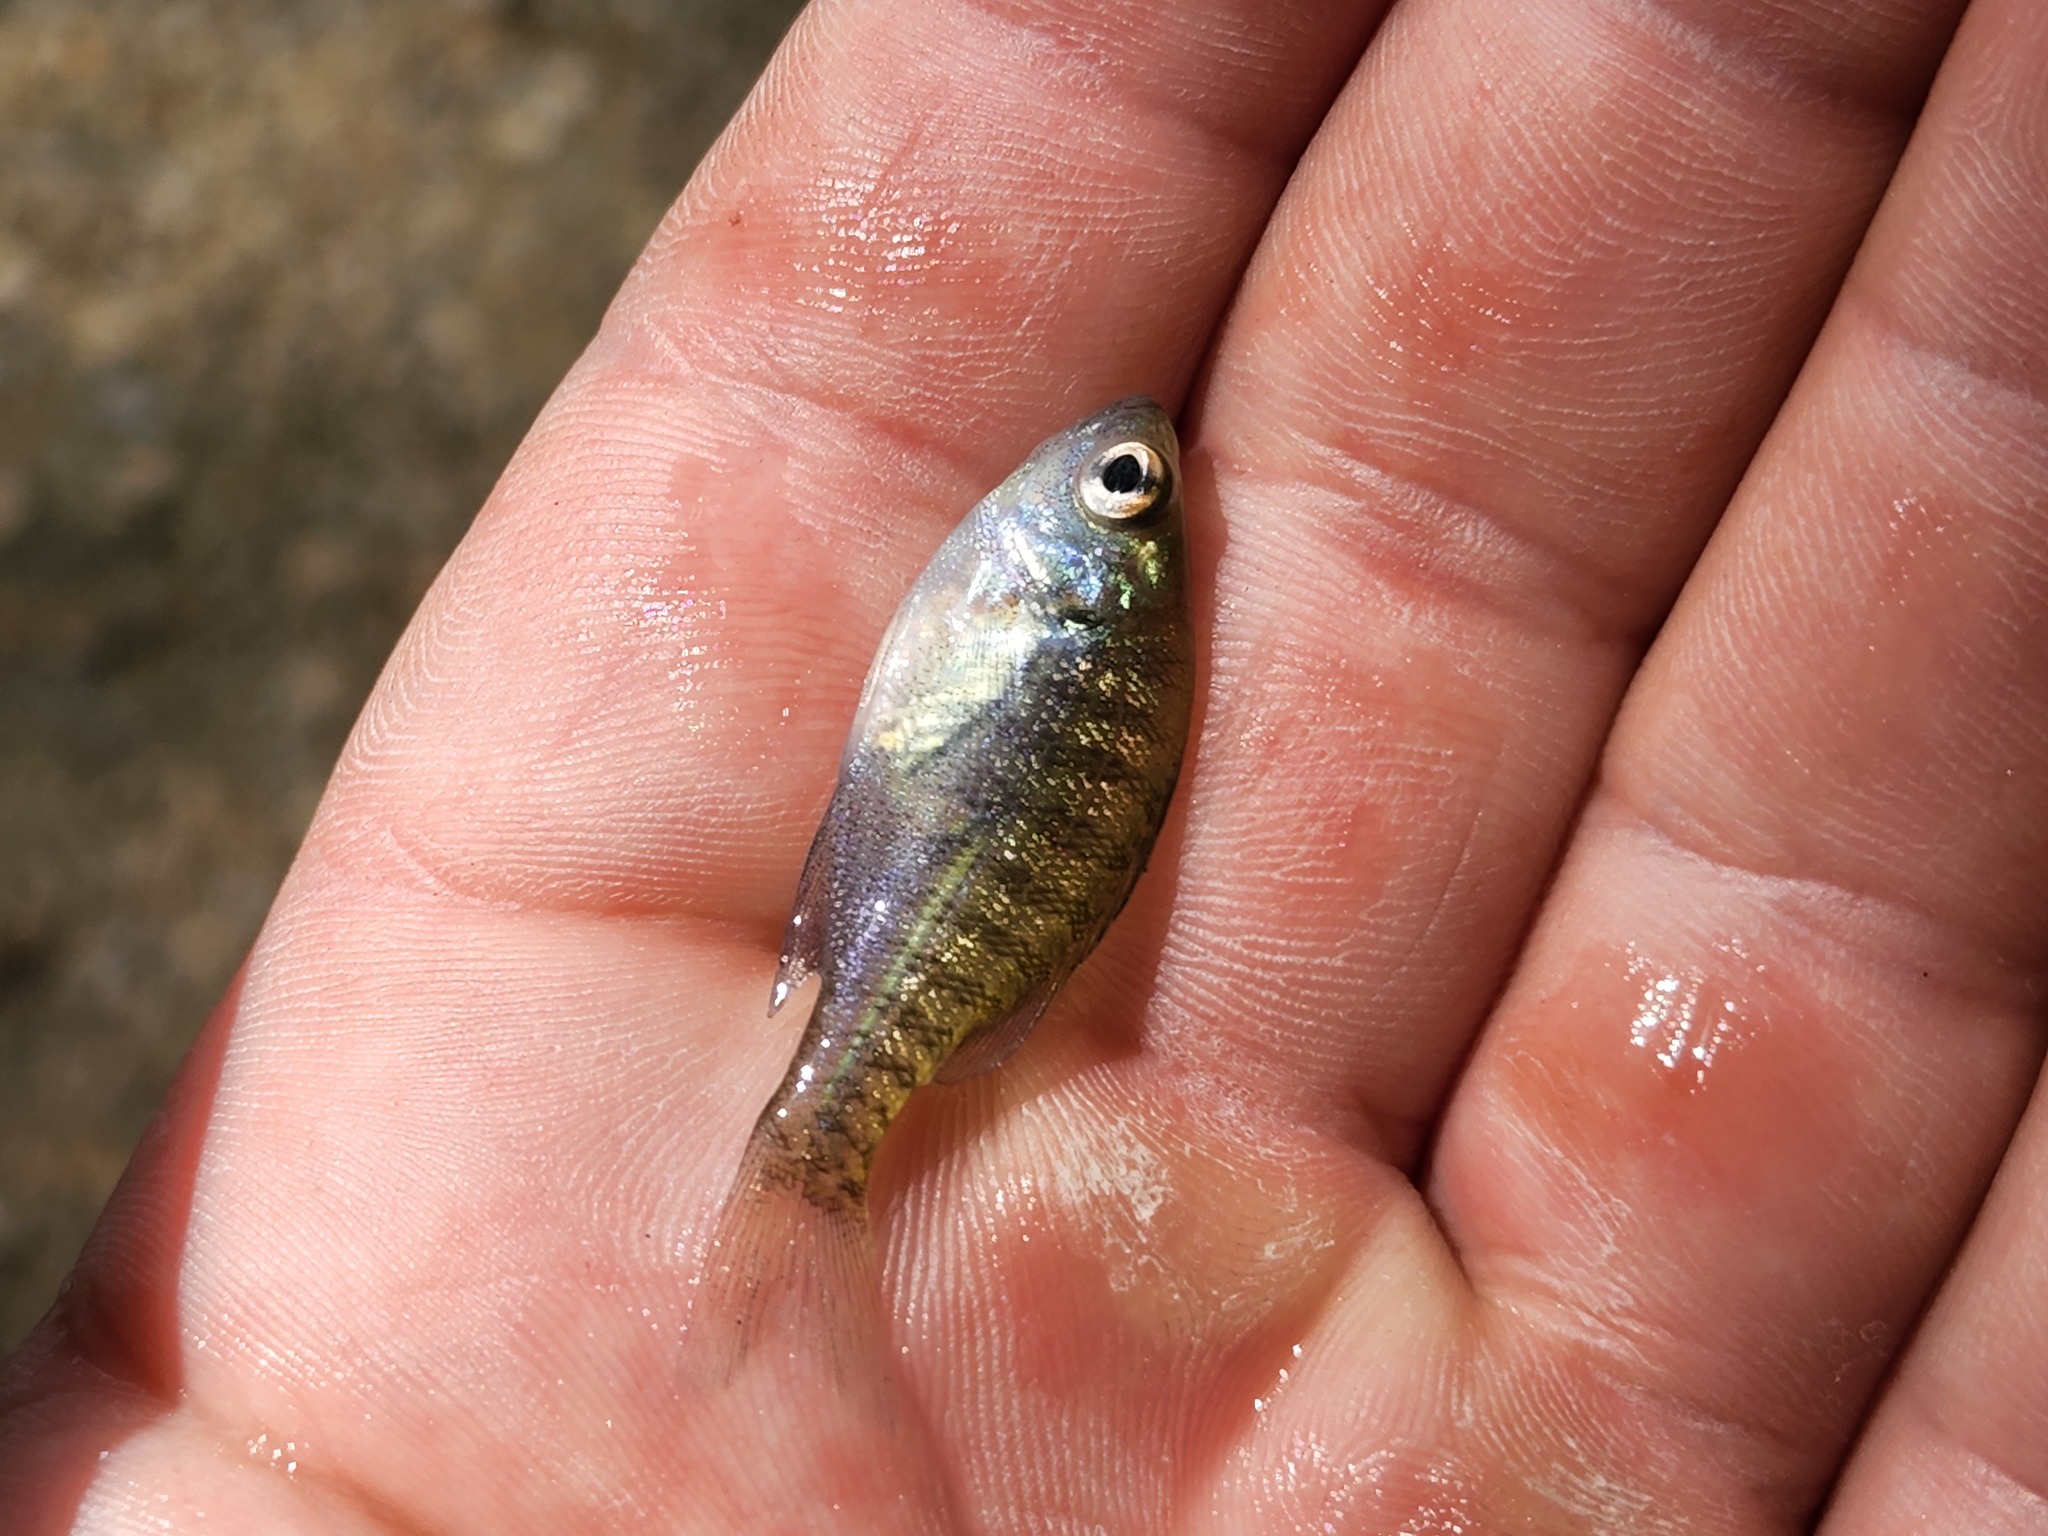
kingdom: Animalia
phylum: Chordata
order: Perciformes
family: Centrarchidae
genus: Lepomis
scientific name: Lepomis macrochirus
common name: Bluegill
